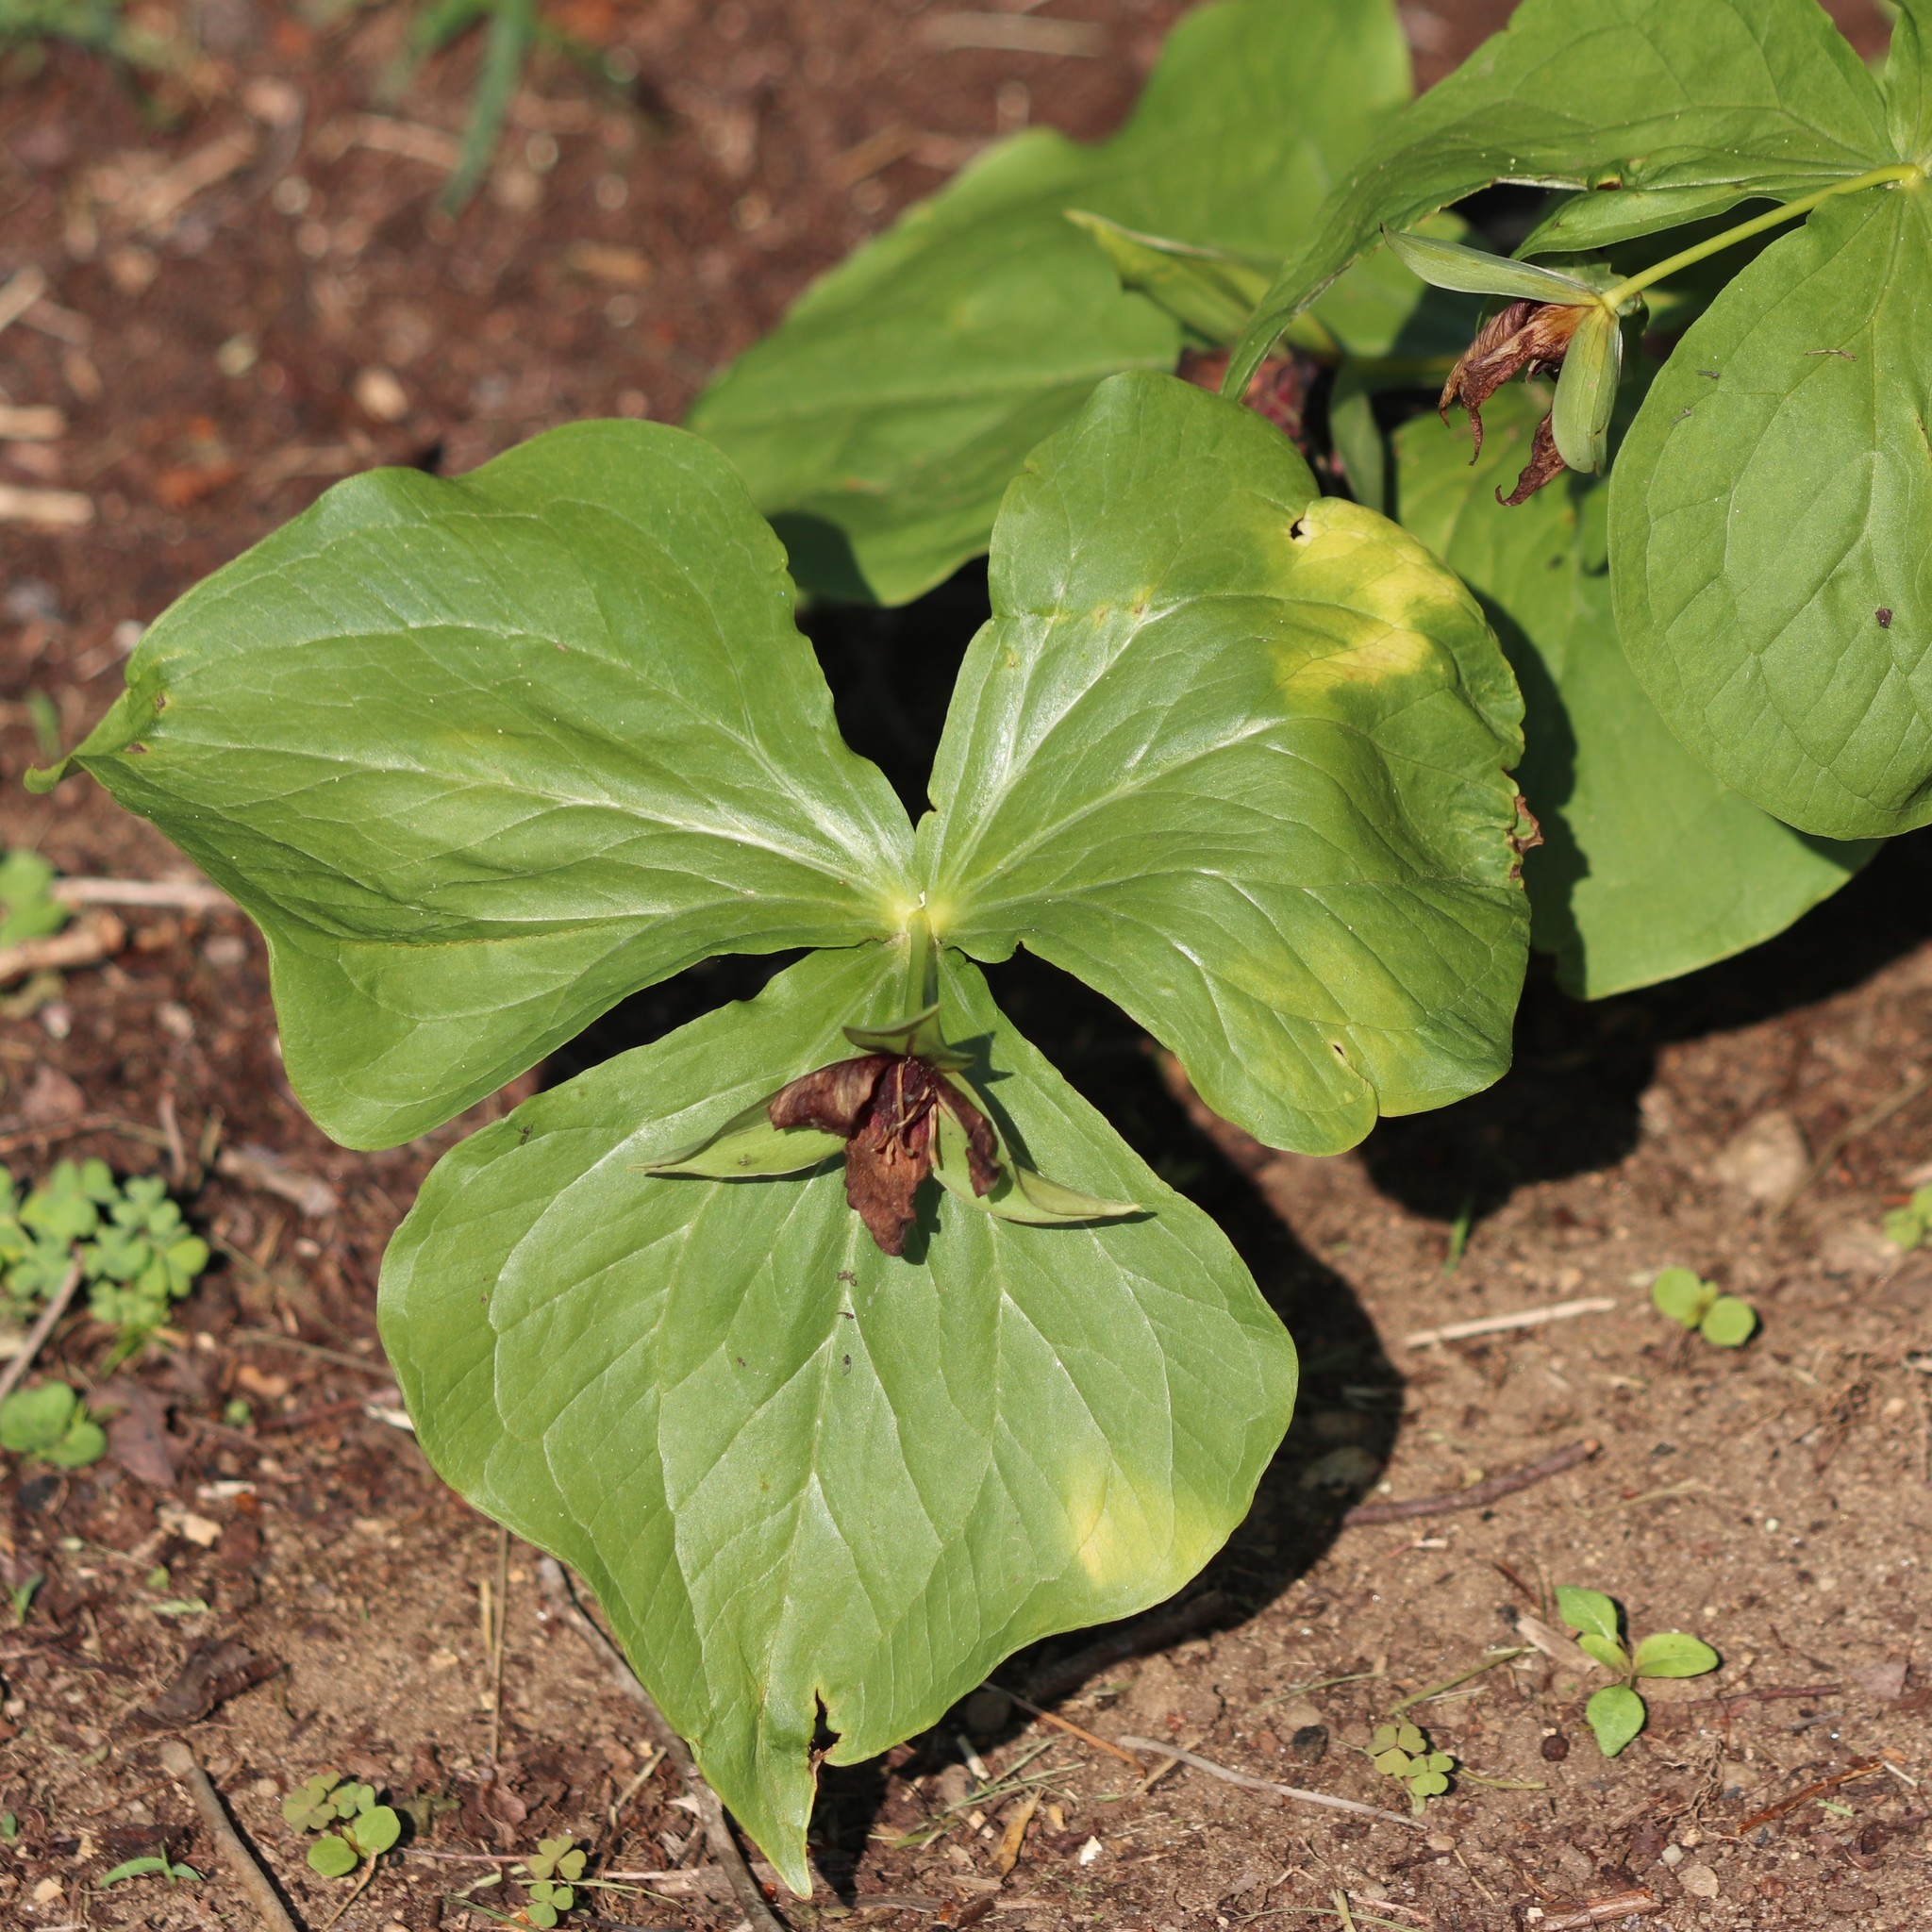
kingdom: Plantae
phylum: Tracheophyta
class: Liliopsida
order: Liliales
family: Melanthiaceae
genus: Trillium
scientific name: Trillium erectum
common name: Purple trillium
